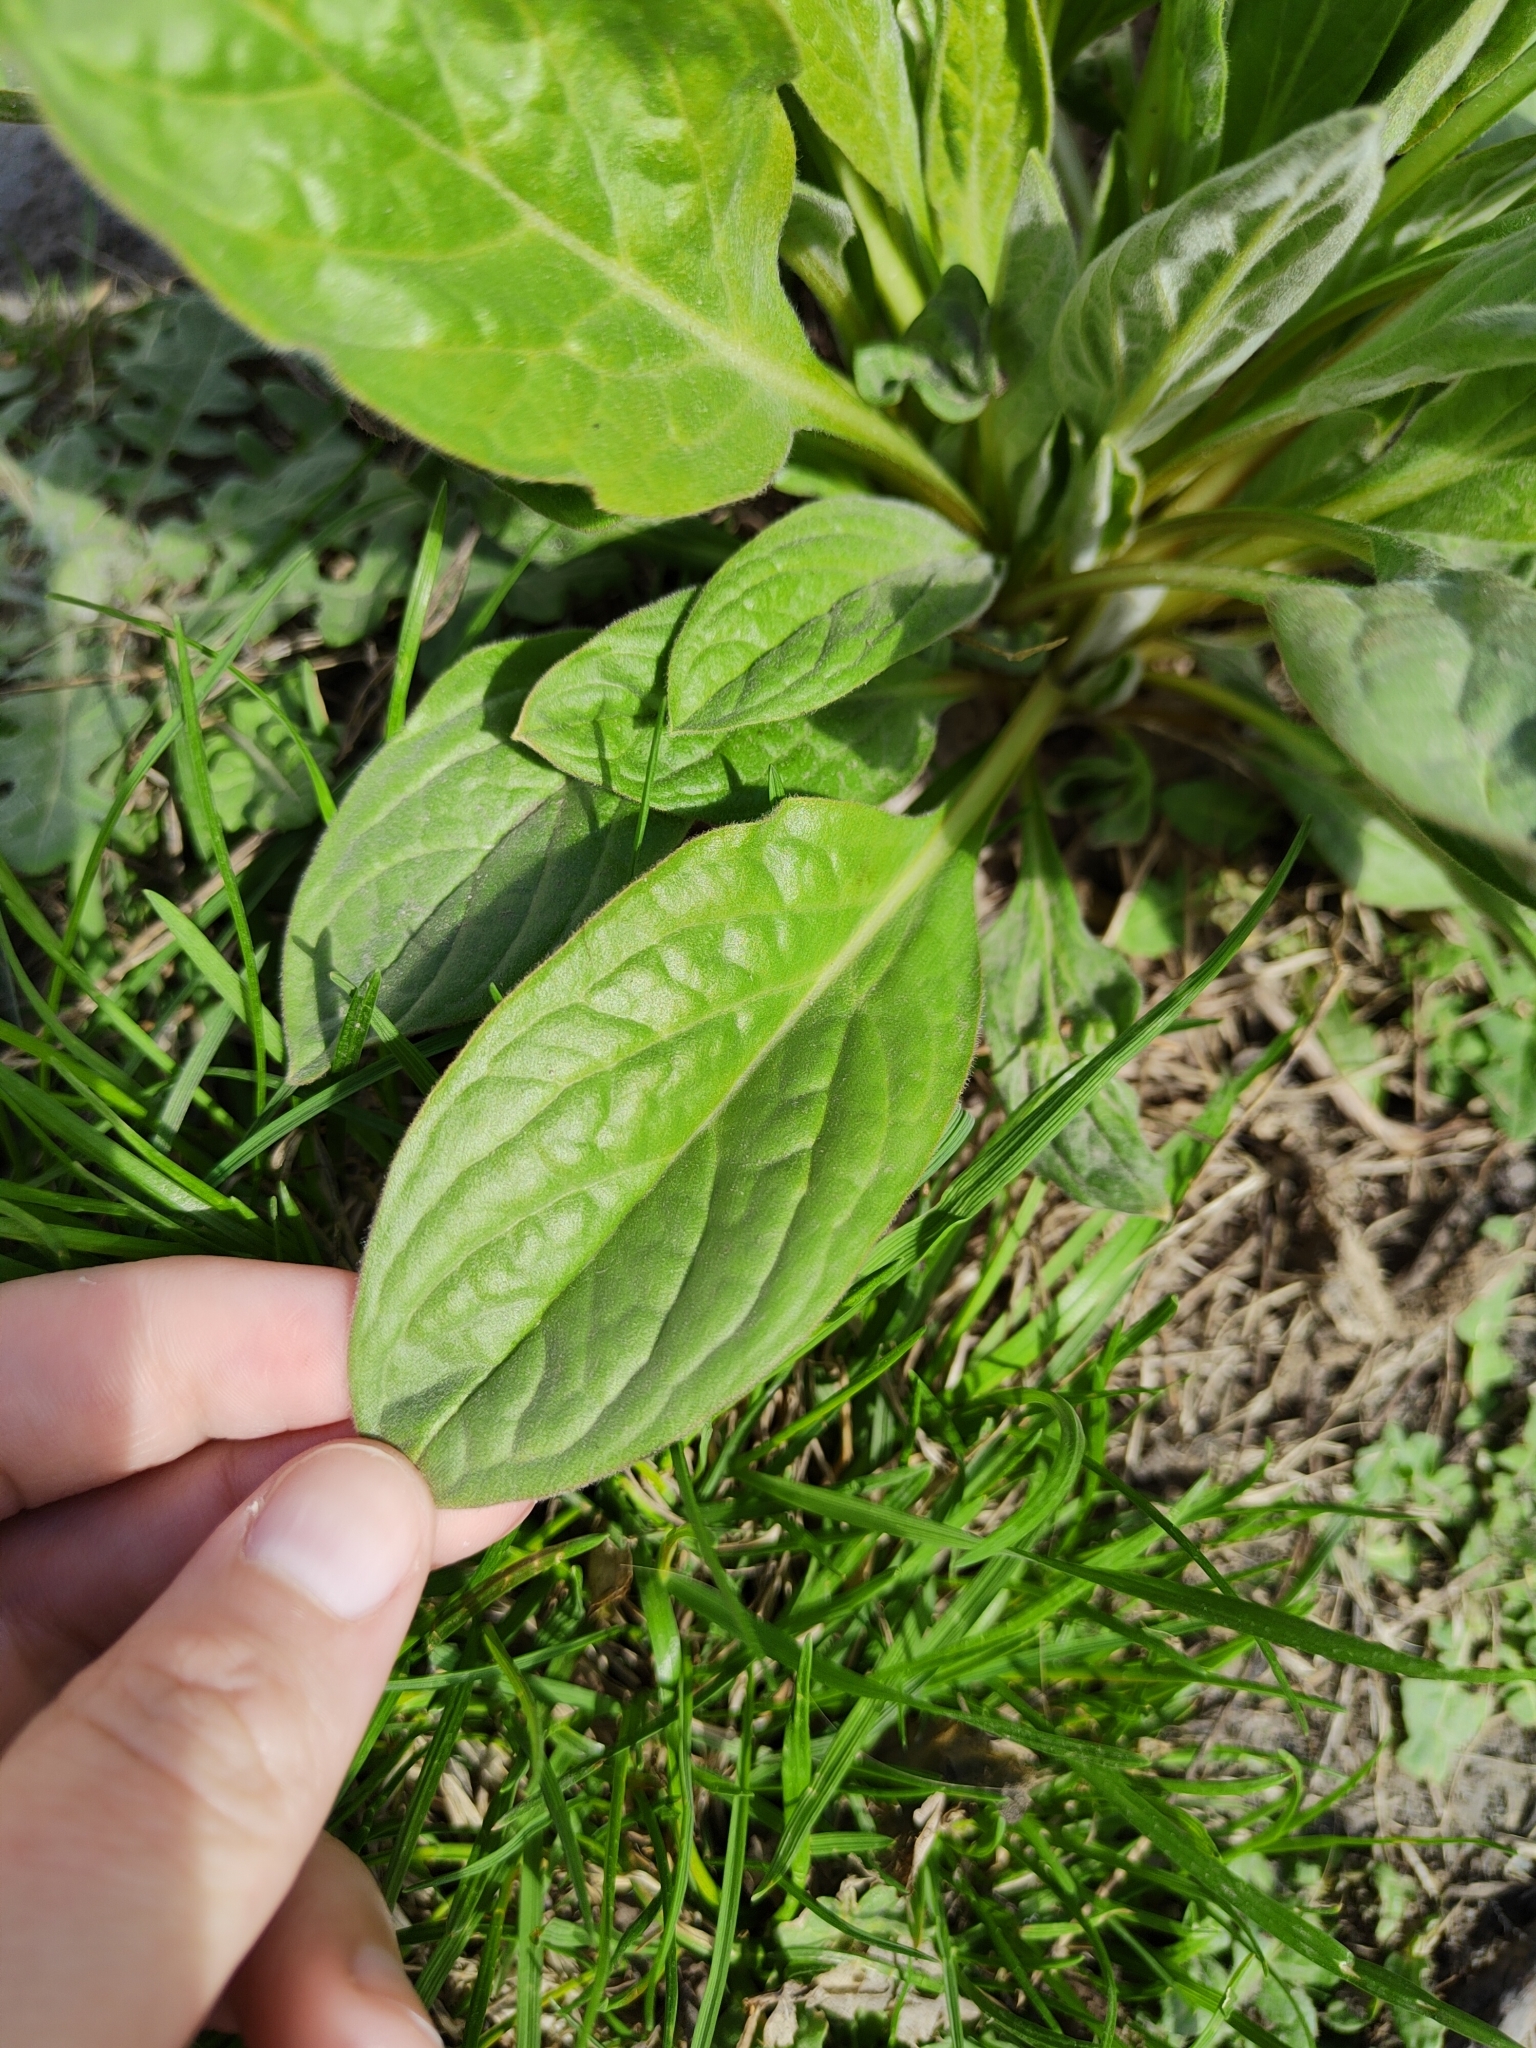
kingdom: Plantae
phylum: Tracheophyta
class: Magnoliopsida
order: Boraginales
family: Boraginaceae
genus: Cynoglossum
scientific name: Cynoglossum officinale
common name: Hound's-tongue
